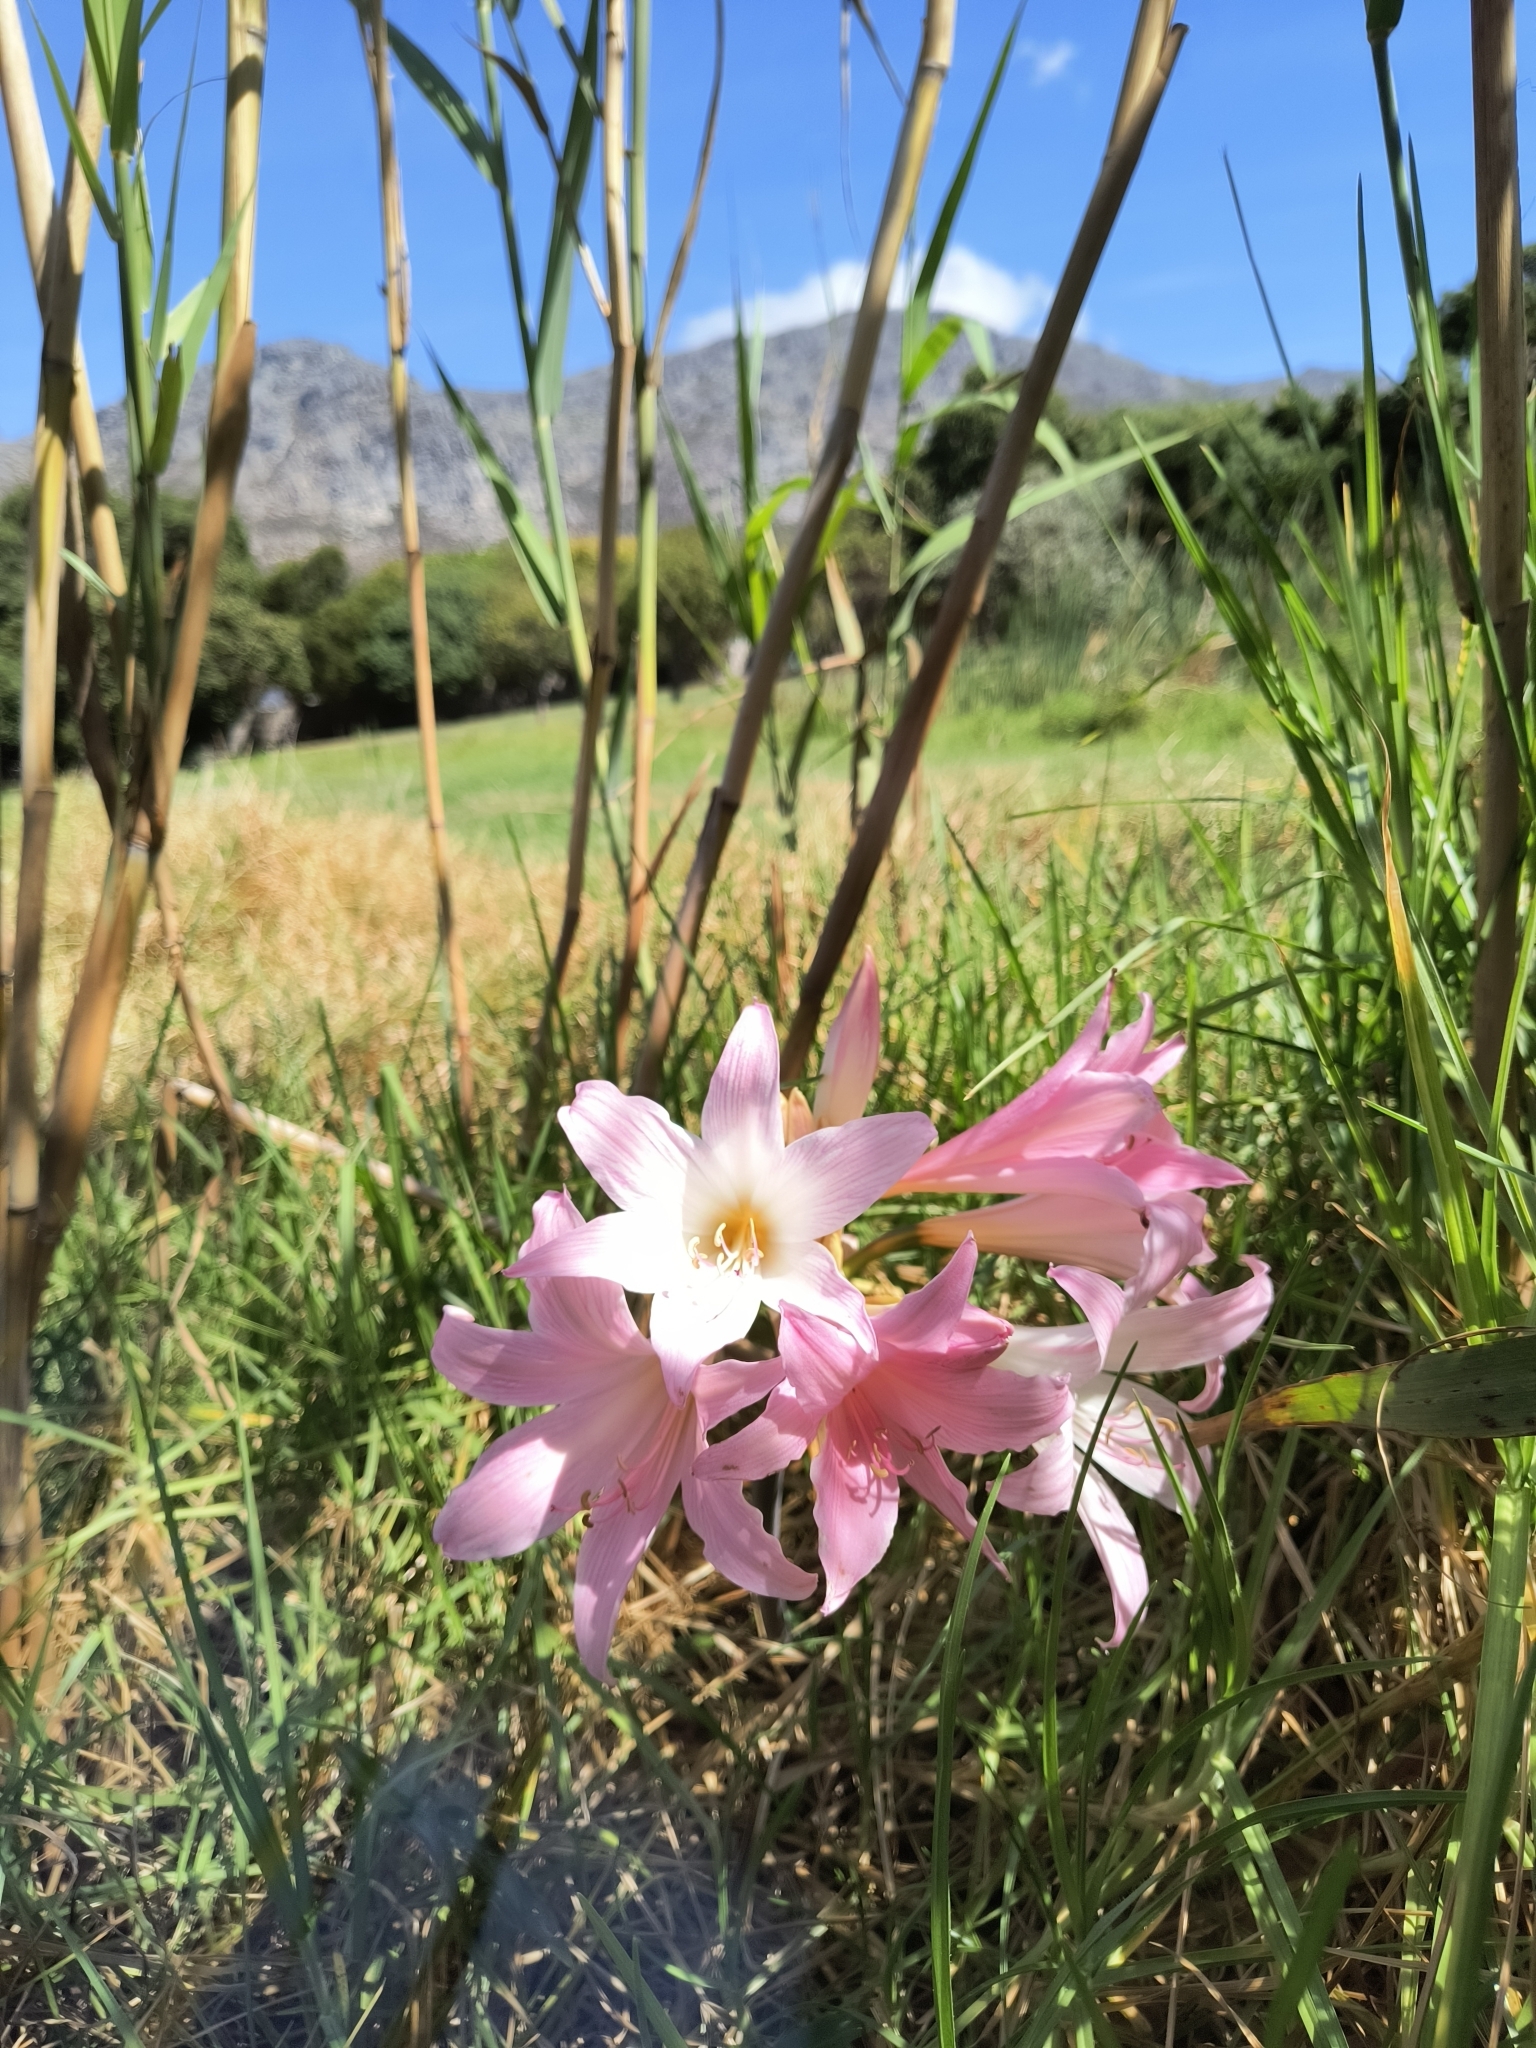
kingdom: Plantae
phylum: Tracheophyta
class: Liliopsida
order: Asparagales
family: Amaryllidaceae
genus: Amaryllis
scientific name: Amaryllis belladonna
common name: Jersey lily
